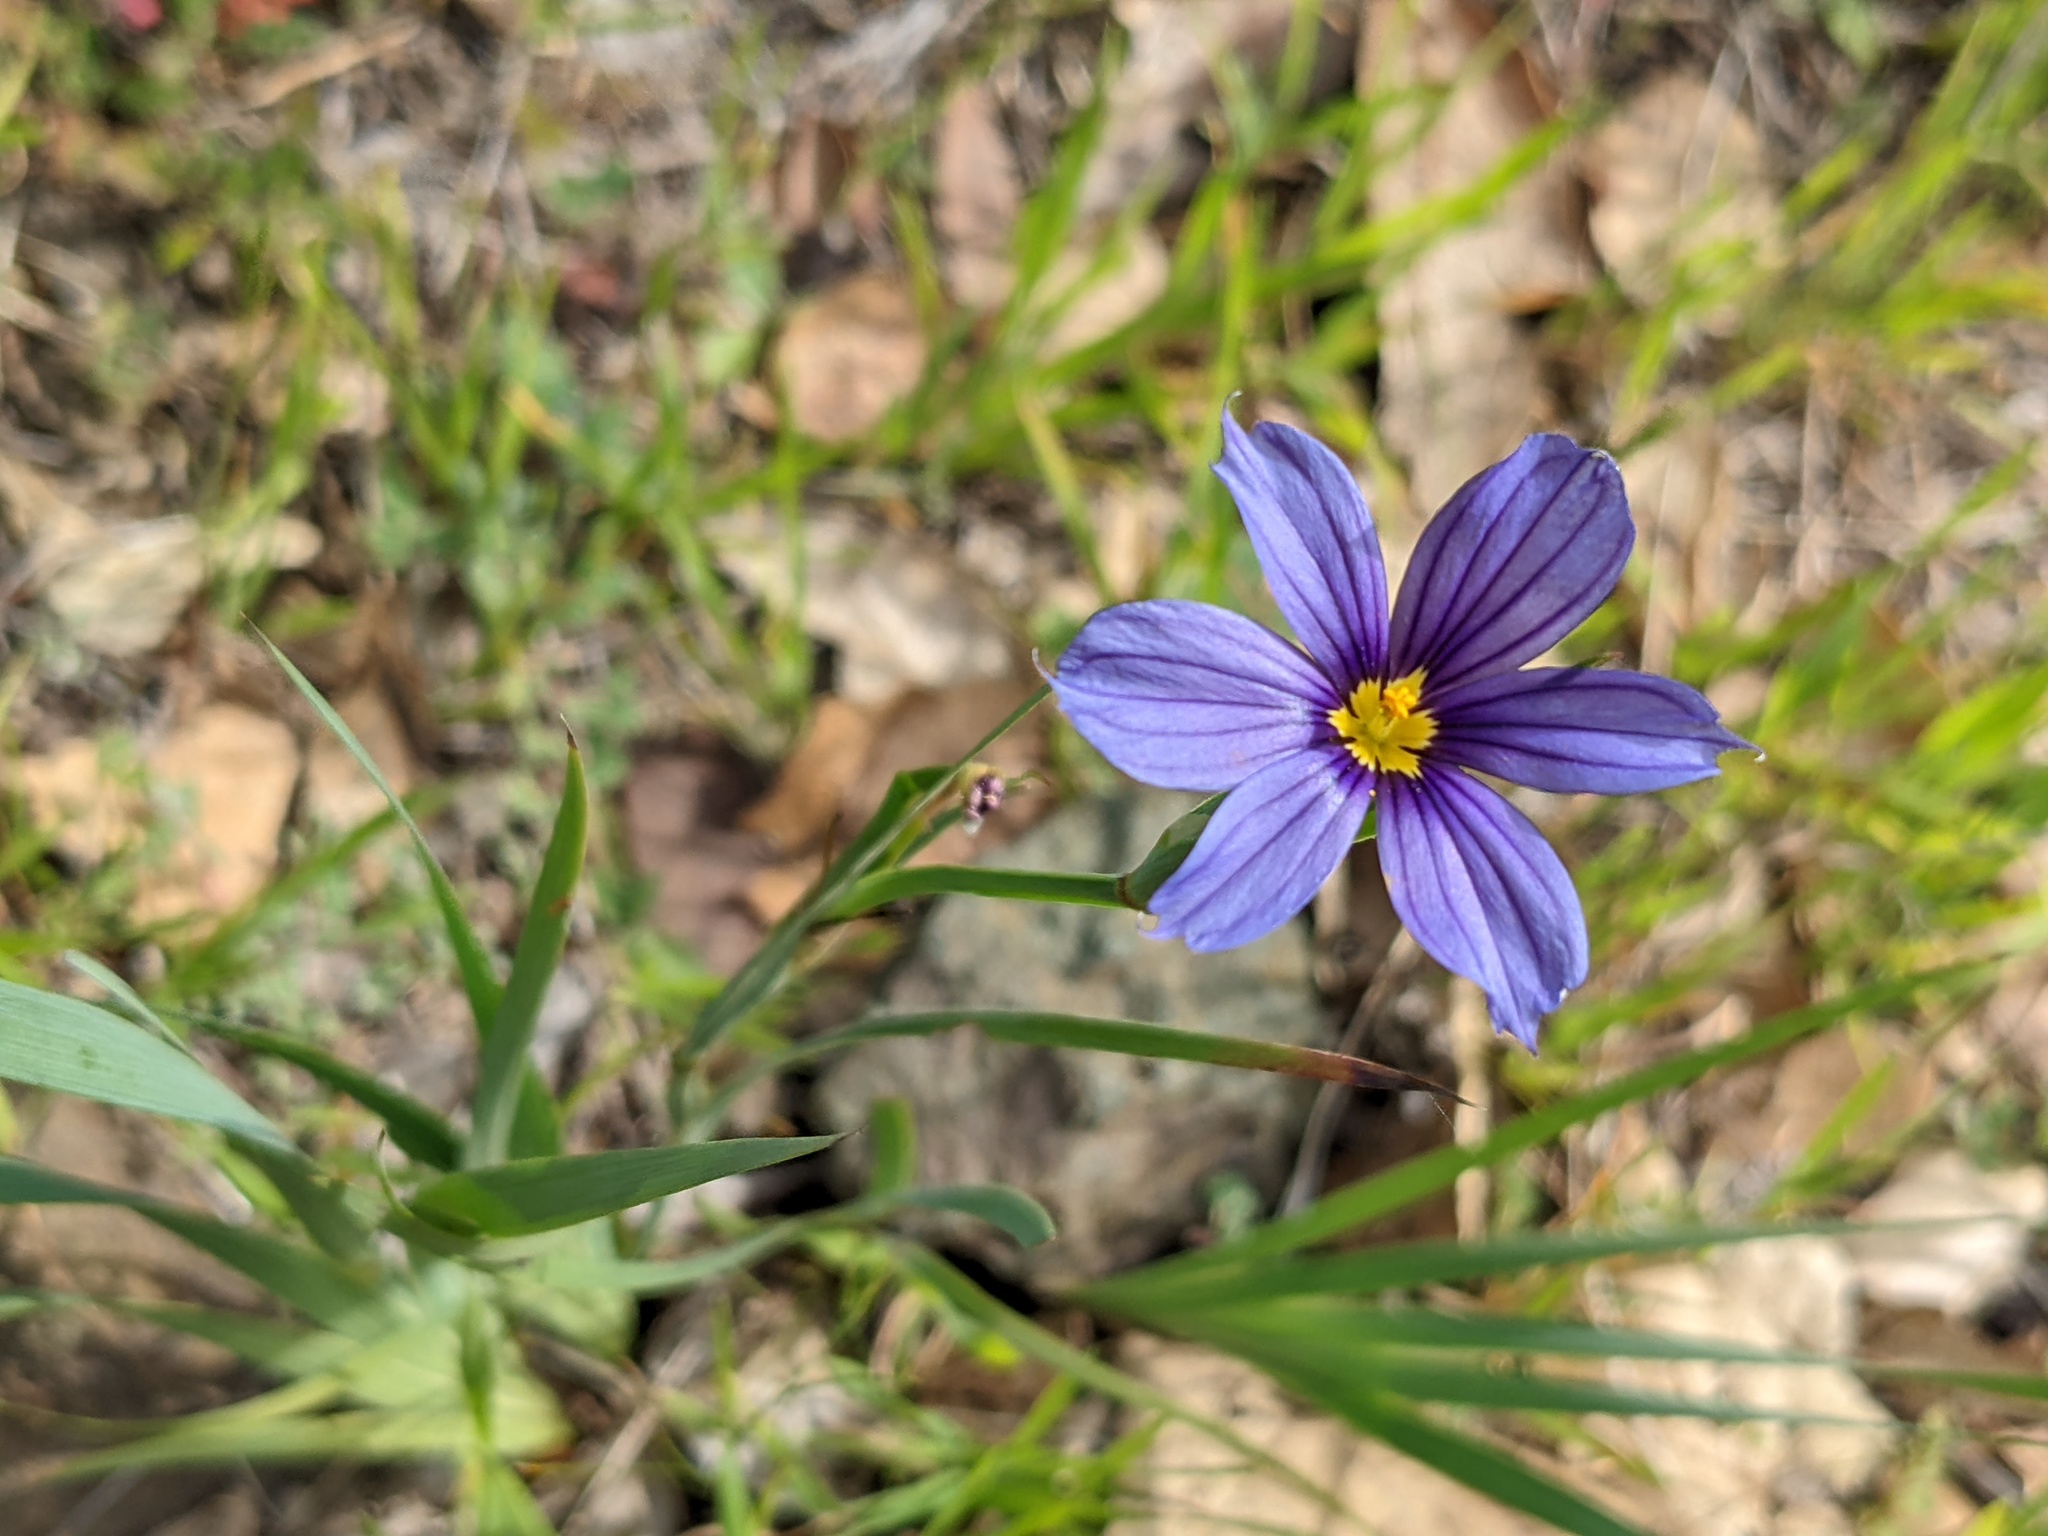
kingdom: Plantae
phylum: Tracheophyta
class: Liliopsida
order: Asparagales
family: Iridaceae
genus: Sisyrinchium
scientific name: Sisyrinchium bellum
